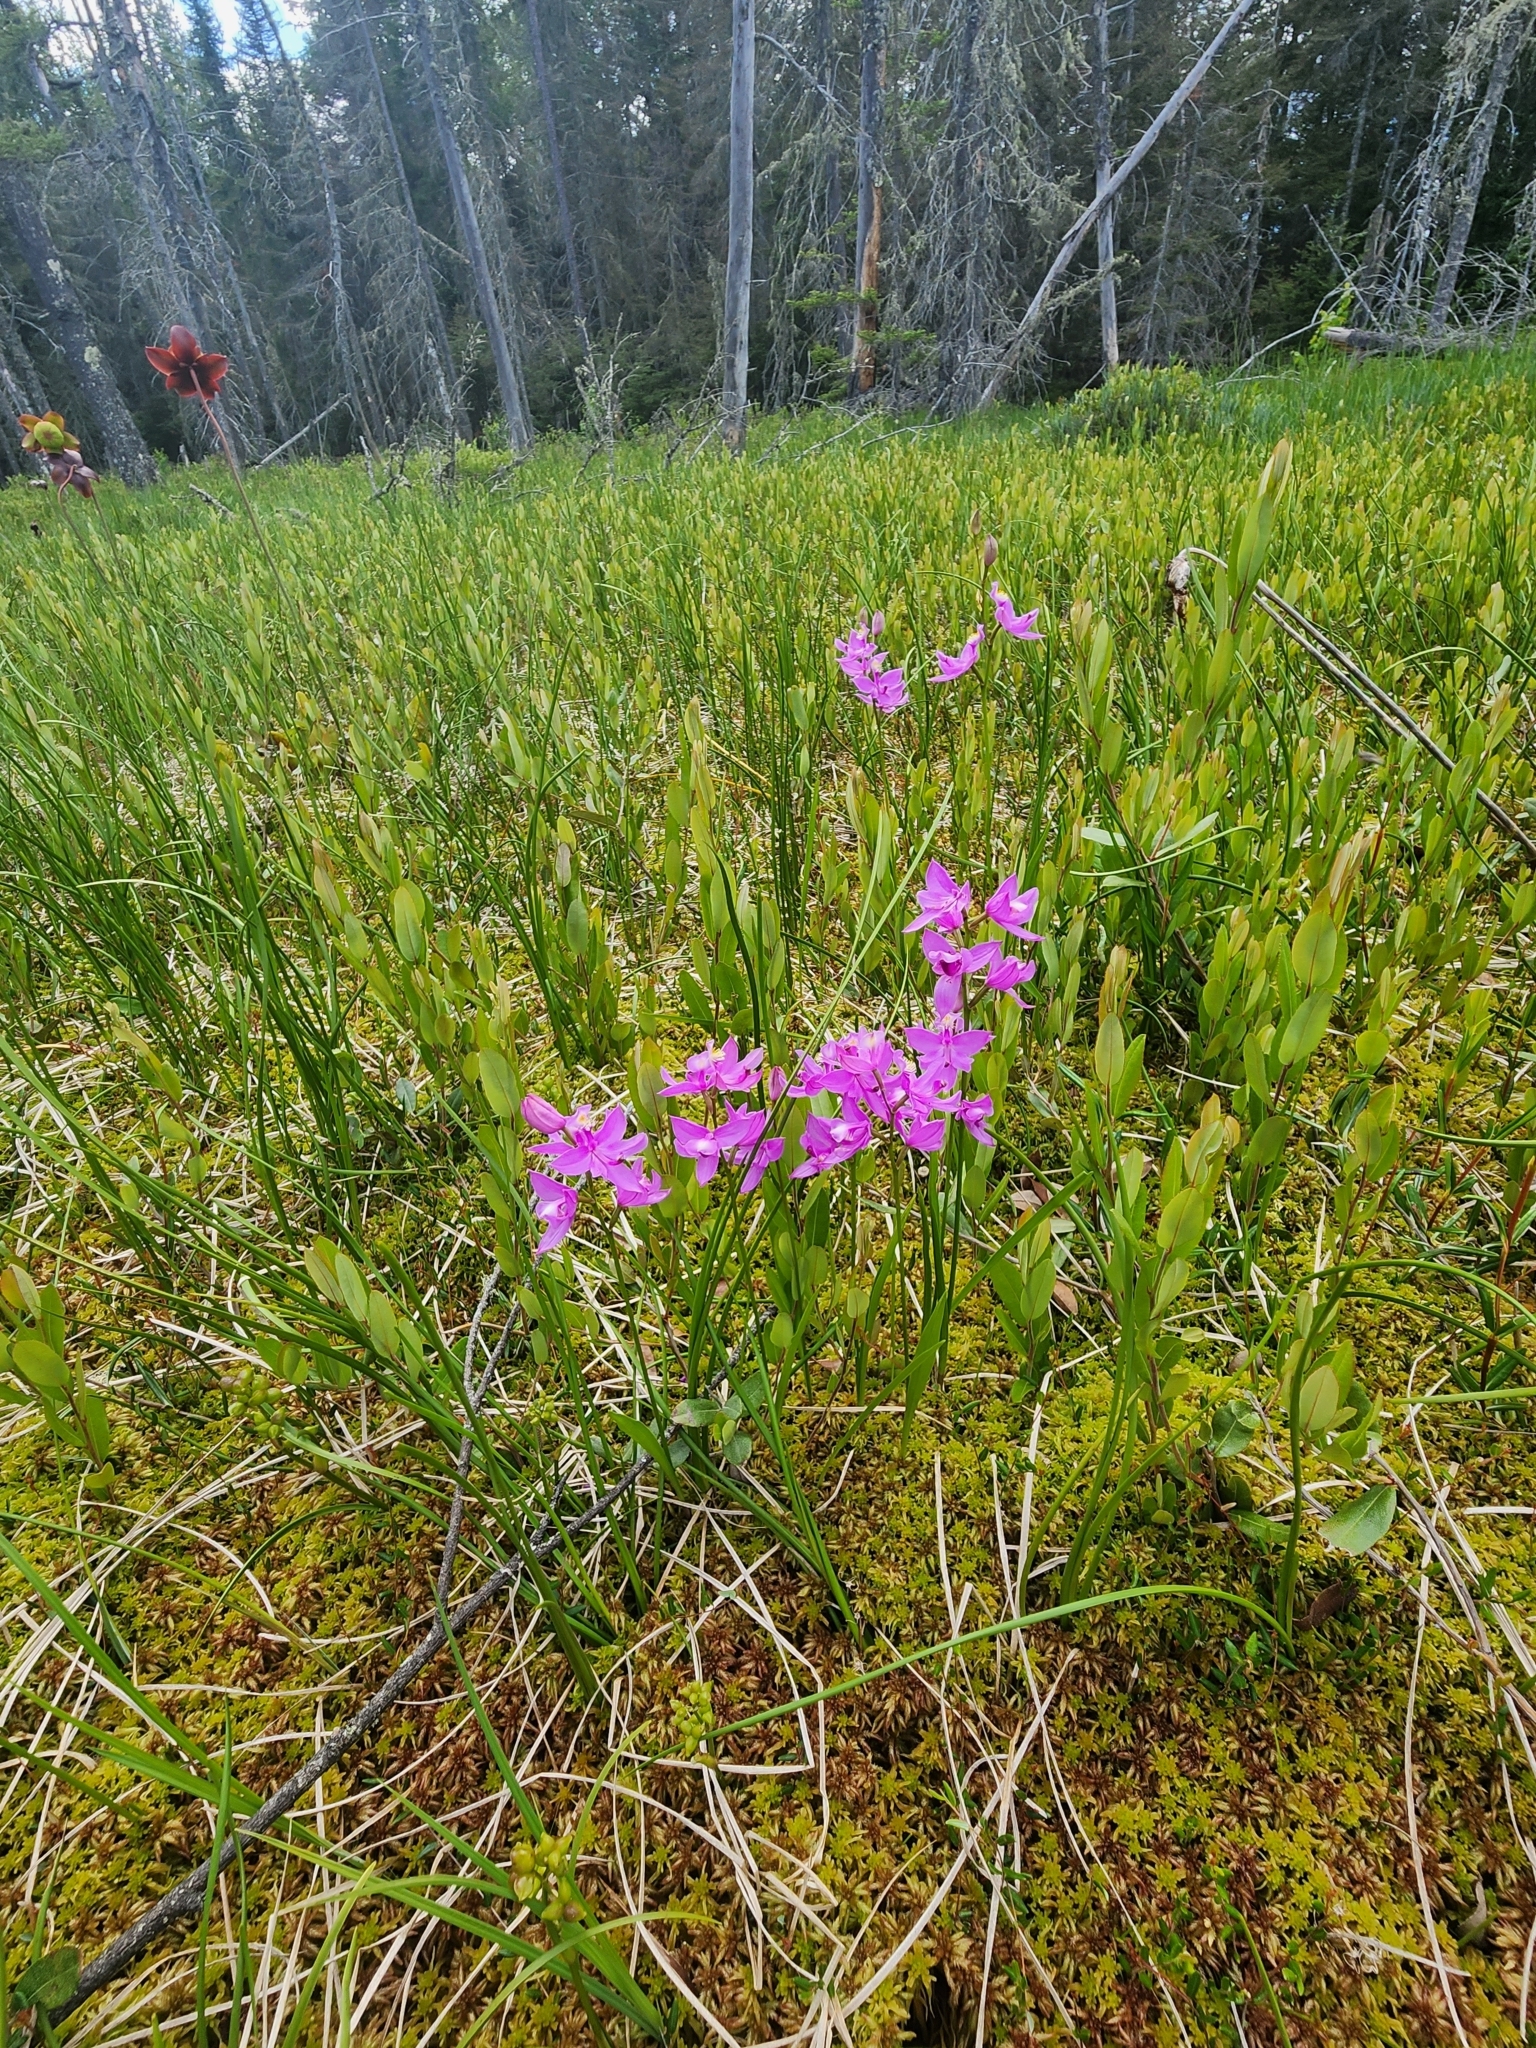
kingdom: Plantae
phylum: Tracheophyta
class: Liliopsida
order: Asparagales
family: Orchidaceae
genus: Calopogon
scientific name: Calopogon tuberosus
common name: Grass-pink
